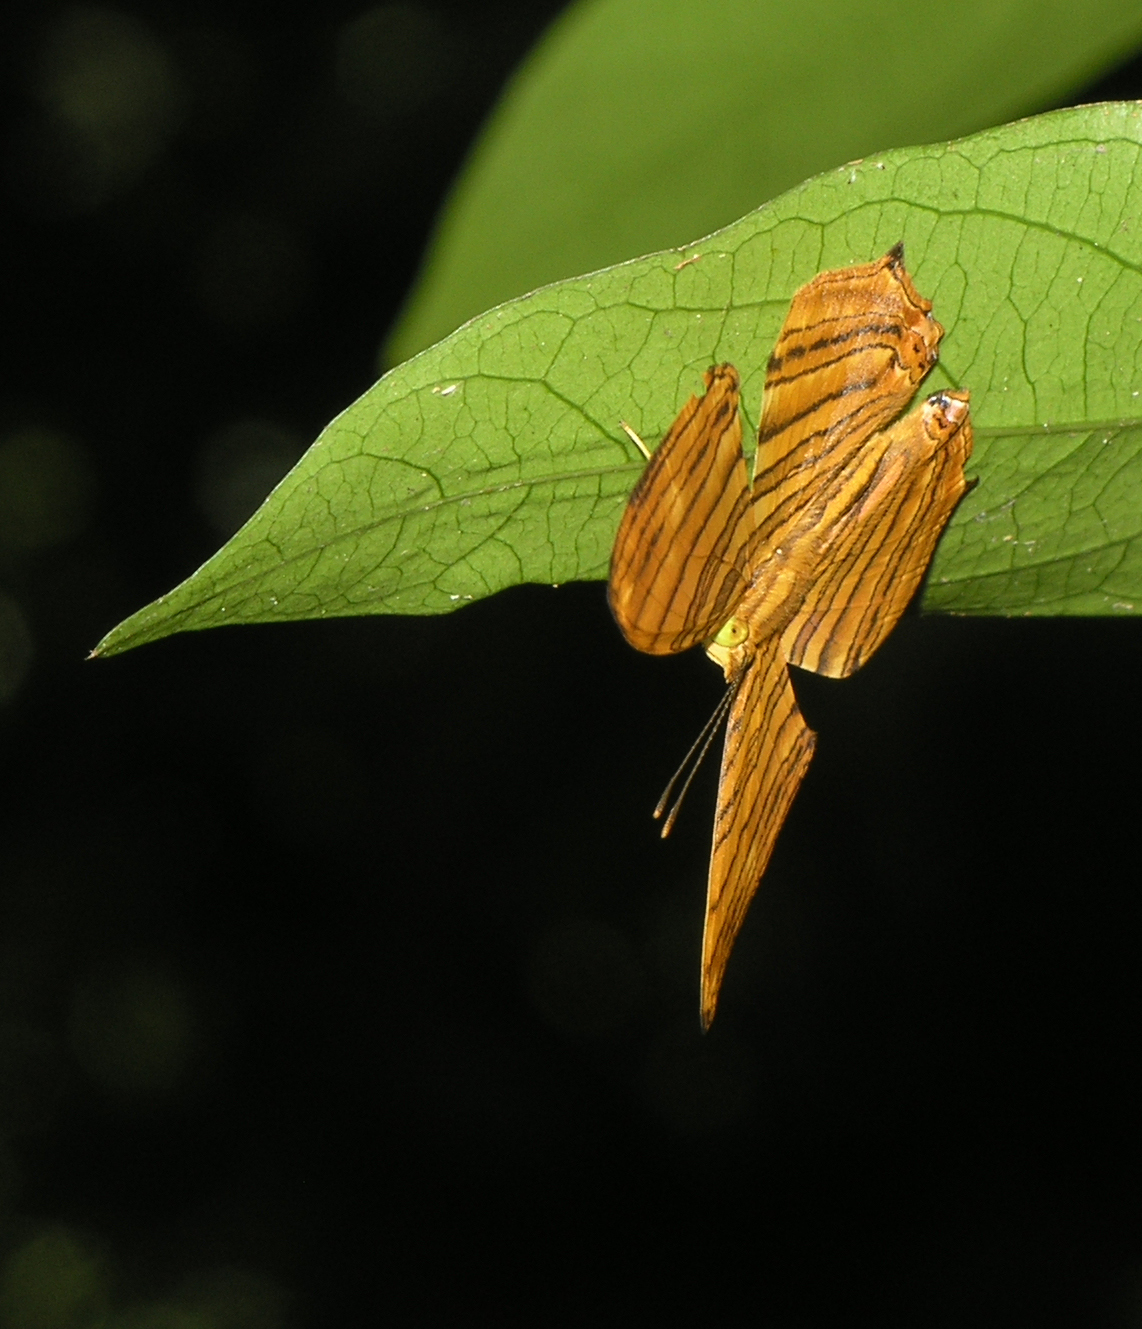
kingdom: Animalia
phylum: Arthropoda
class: Insecta
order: Lepidoptera
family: Nymphalidae
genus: Chersonesia
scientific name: Chersonesia risa
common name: Common maplet
